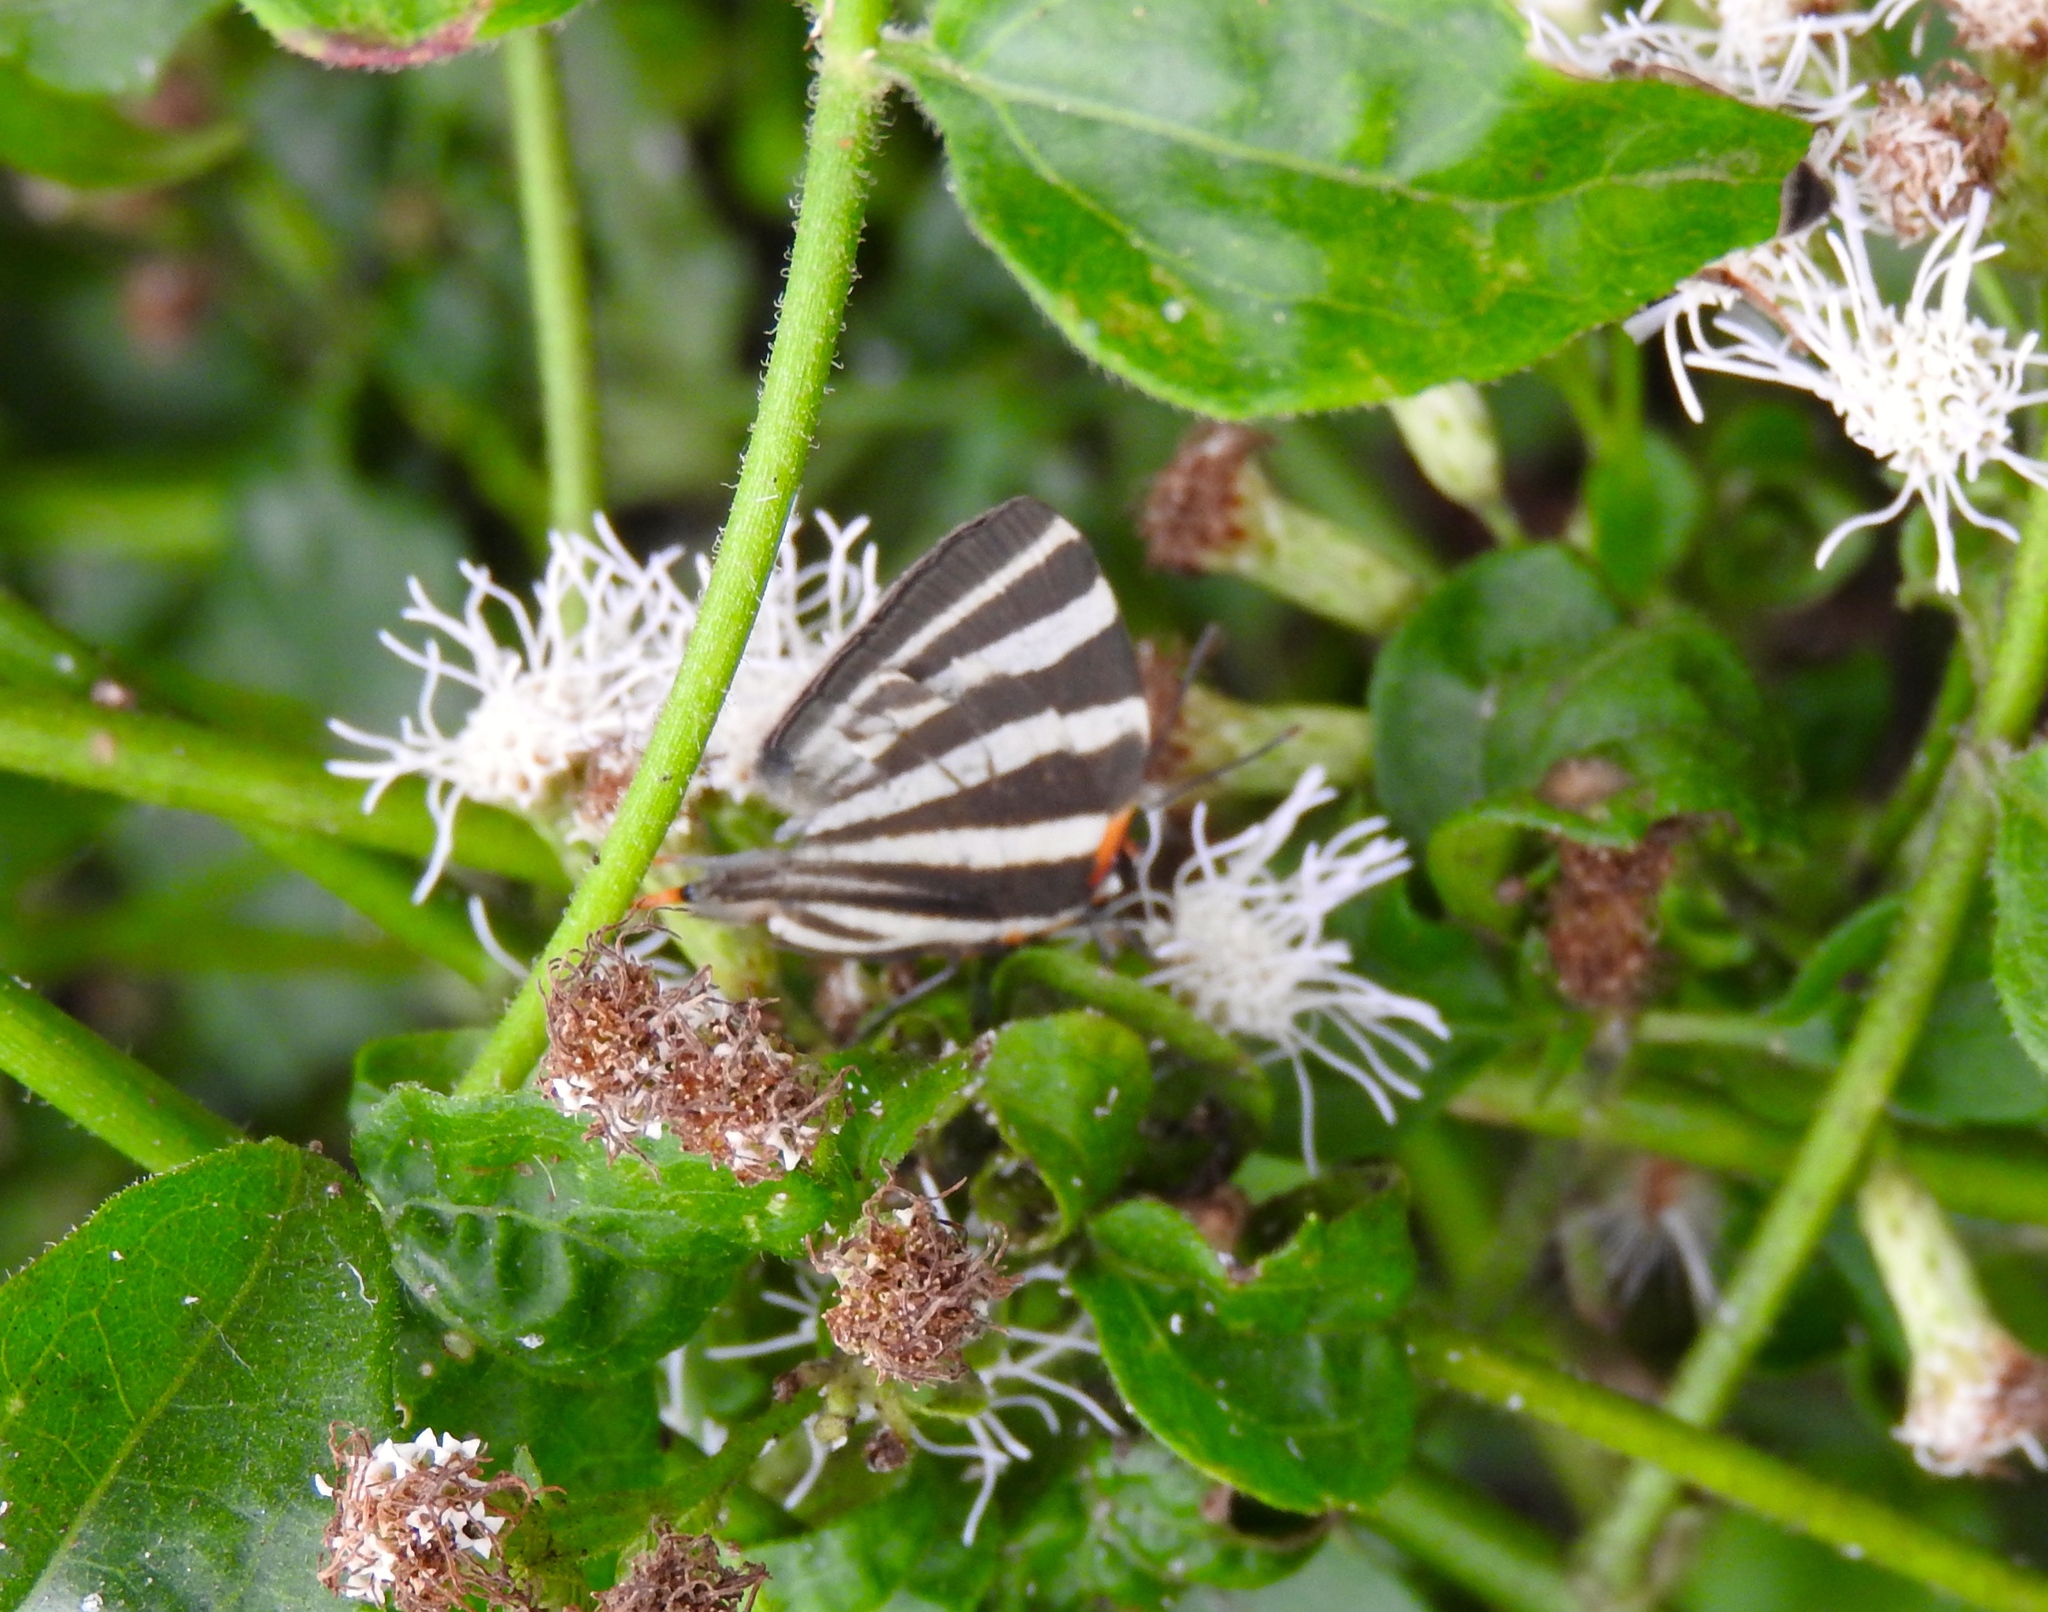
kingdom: Animalia
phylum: Arthropoda
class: Insecta
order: Lepidoptera
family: Lycaenidae
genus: Thecla
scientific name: Thecla bathildis
